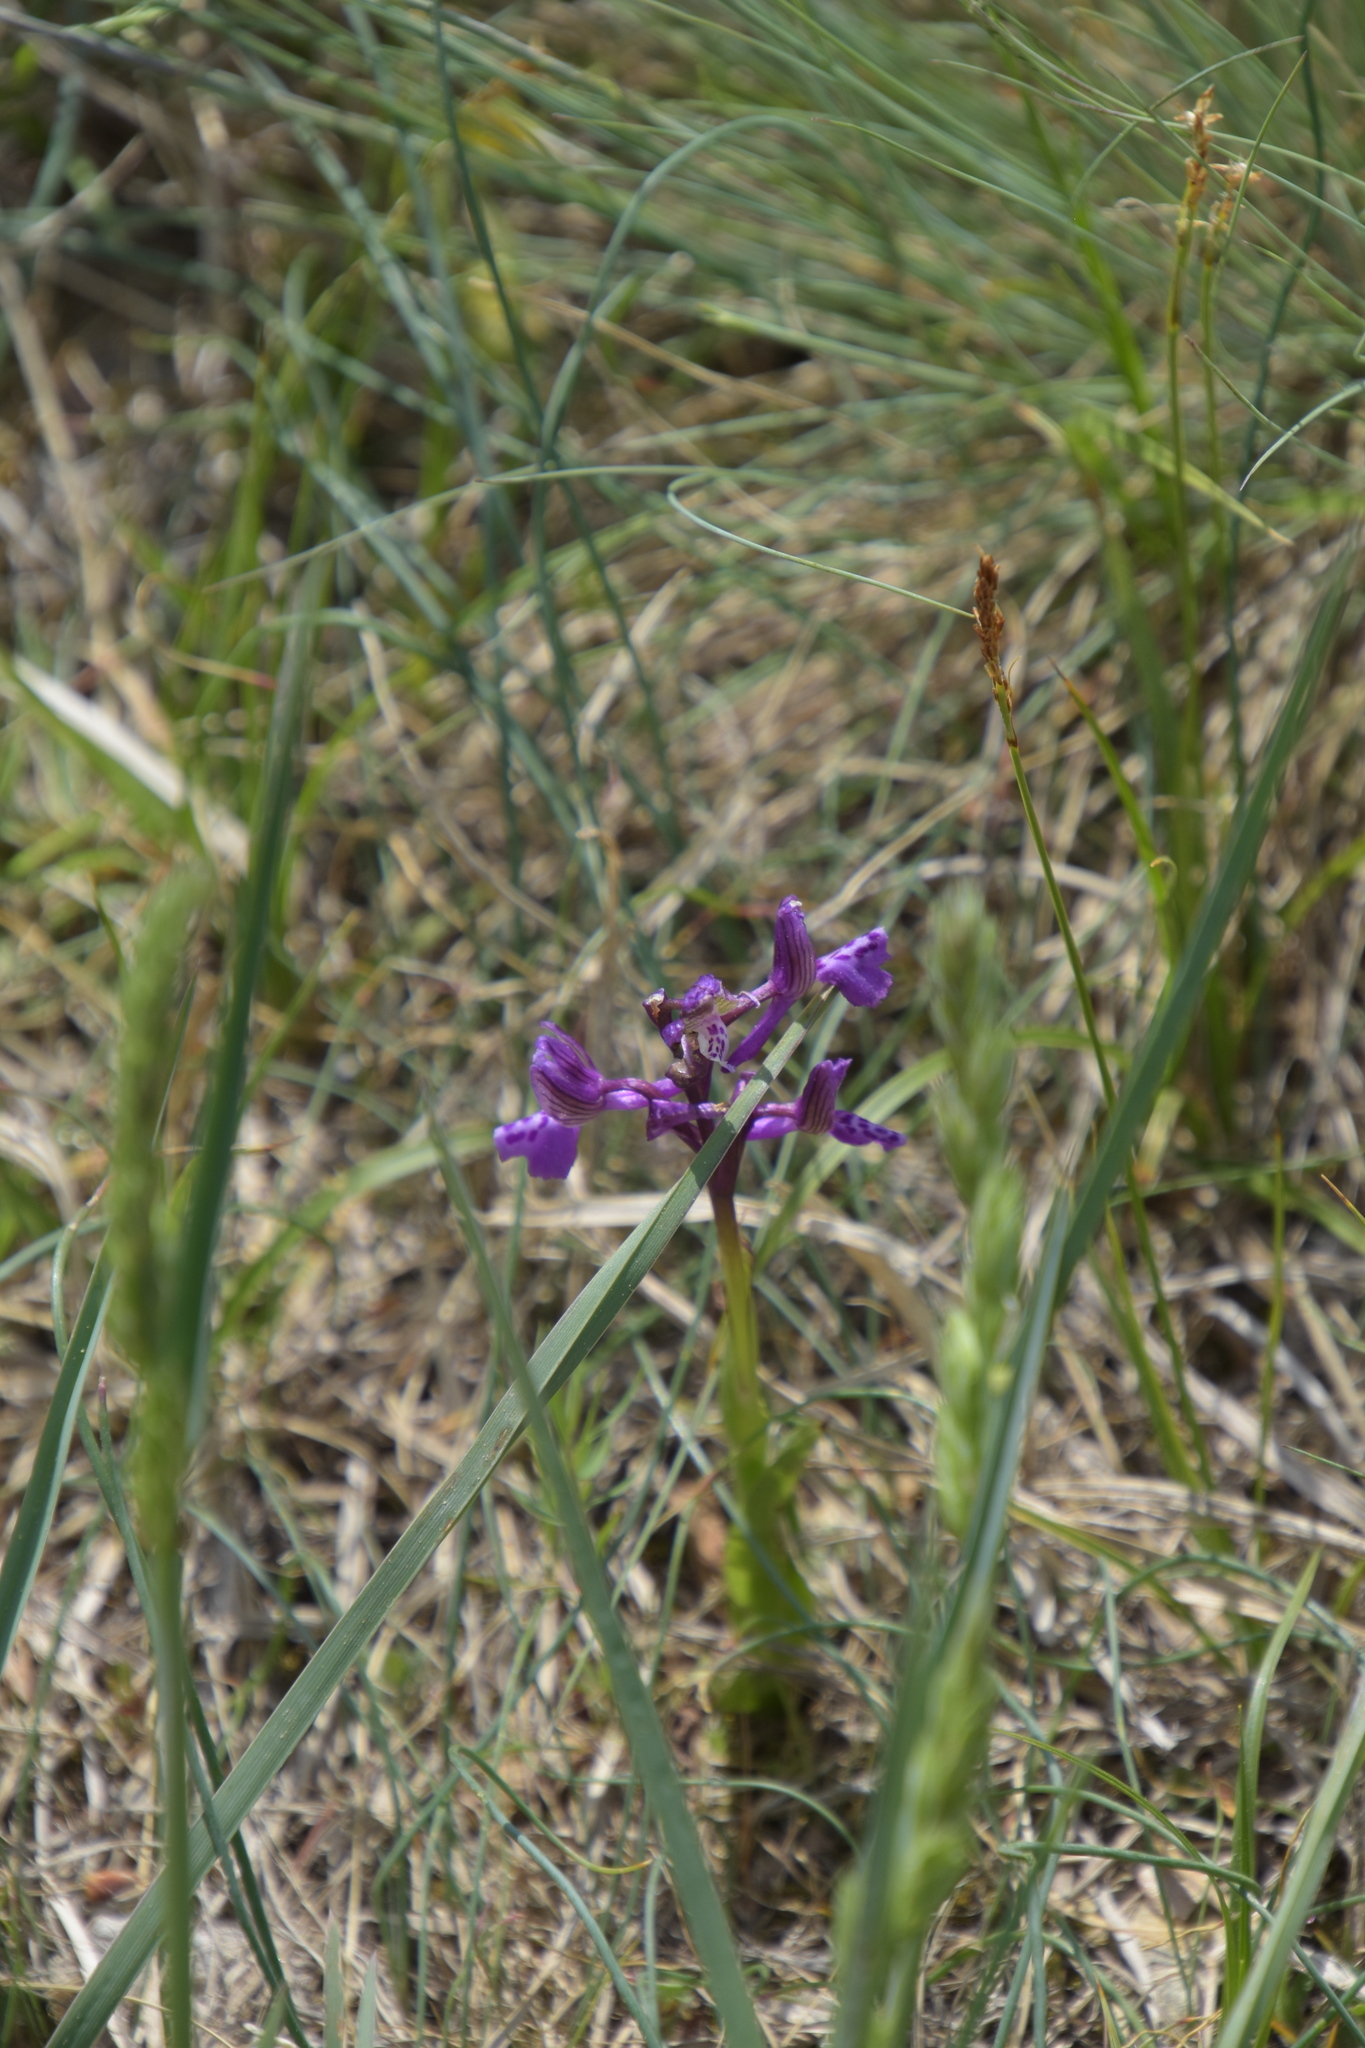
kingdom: Plantae
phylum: Tracheophyta
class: Liliopsida
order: Asparagales
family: Orchidaceae
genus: Anacamptis
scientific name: Anacamptis morio
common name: Green-winged orchid
